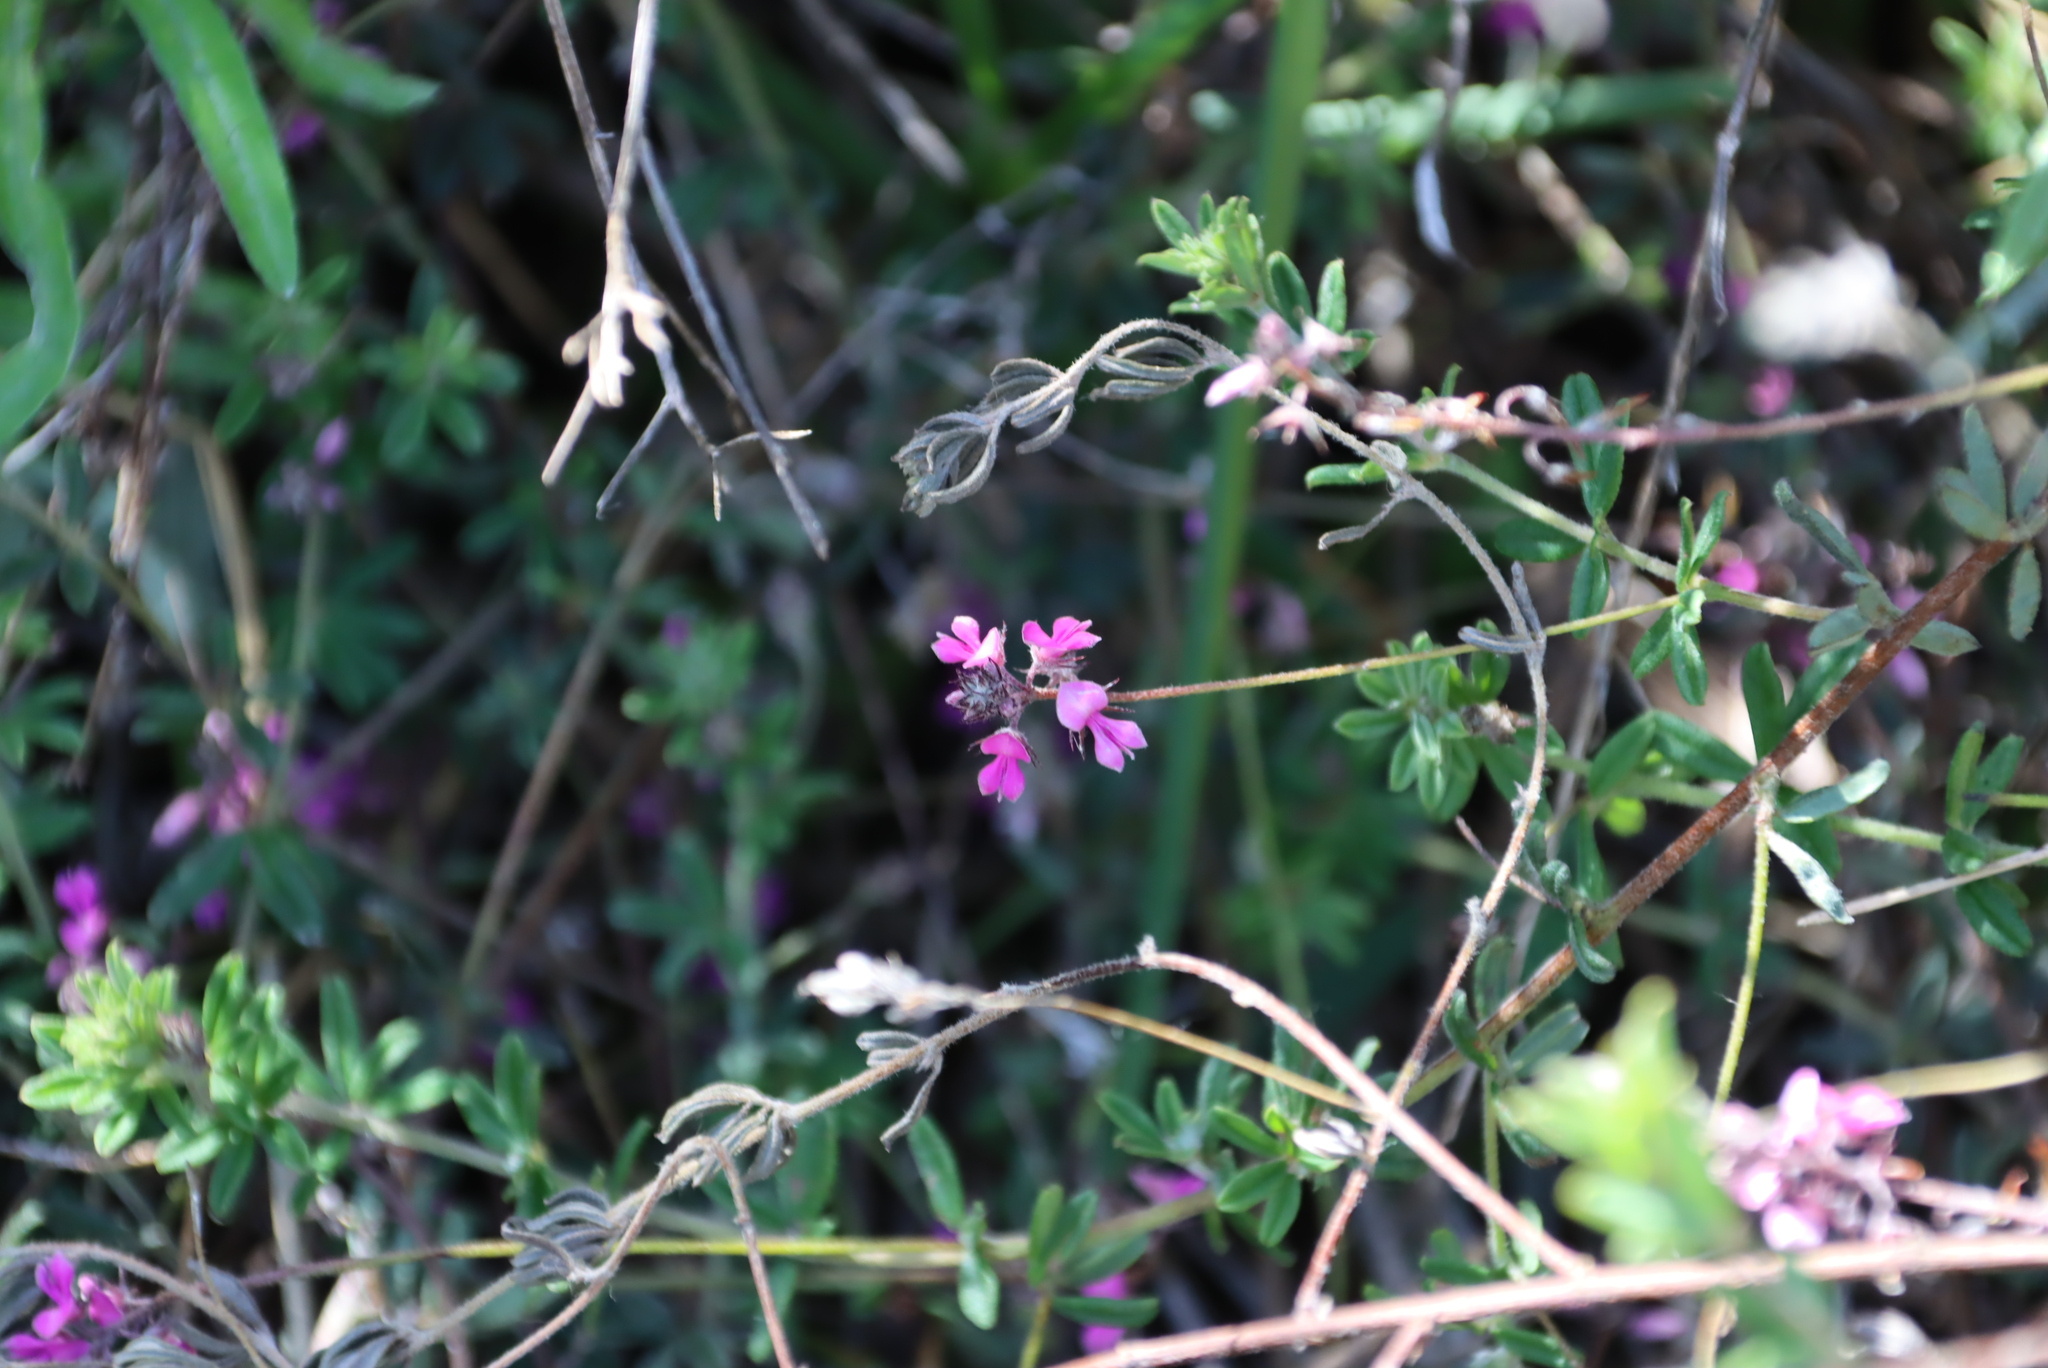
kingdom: Plantae
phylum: Tracheophyta
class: Magnoliopsida
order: Fabales
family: Fabaceae
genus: Indigofera
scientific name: Indigofera filiformis
